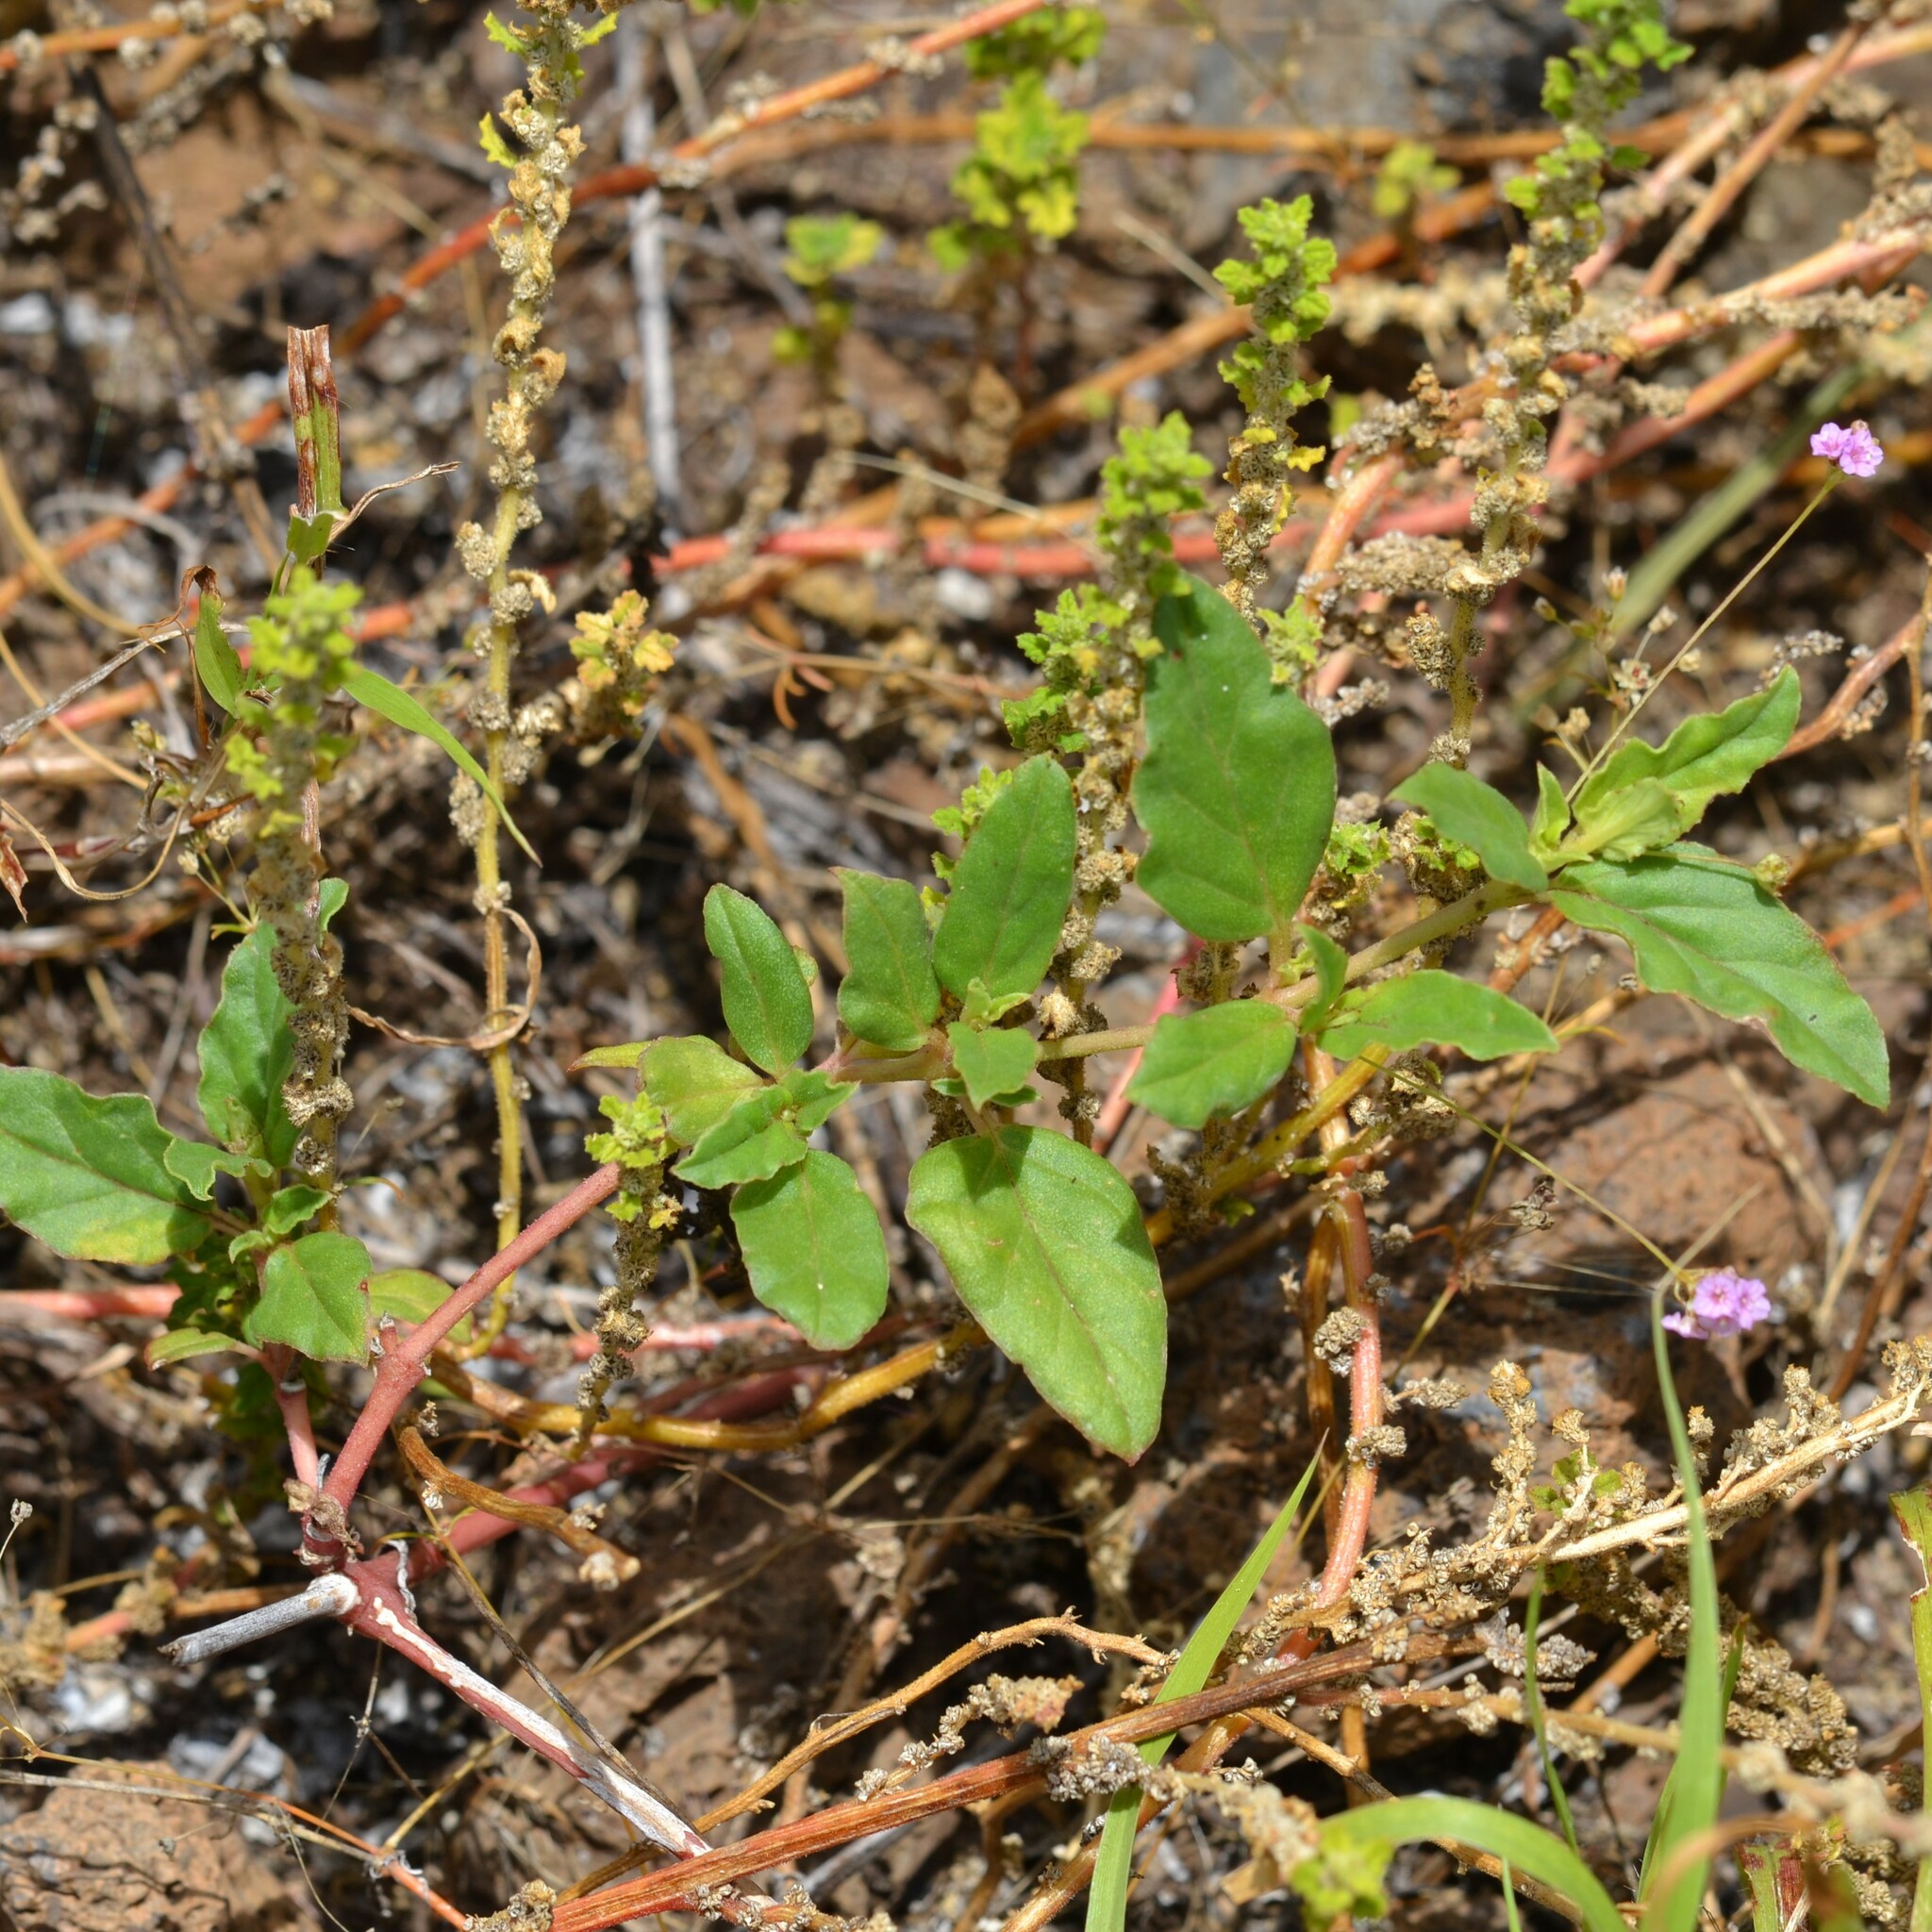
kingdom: Plantae
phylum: Tracheophyta
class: Magnoliopsida
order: Caryophyllales
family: Nyctaginaceae
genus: Boerhavia
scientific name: Boerhavia glabrata
